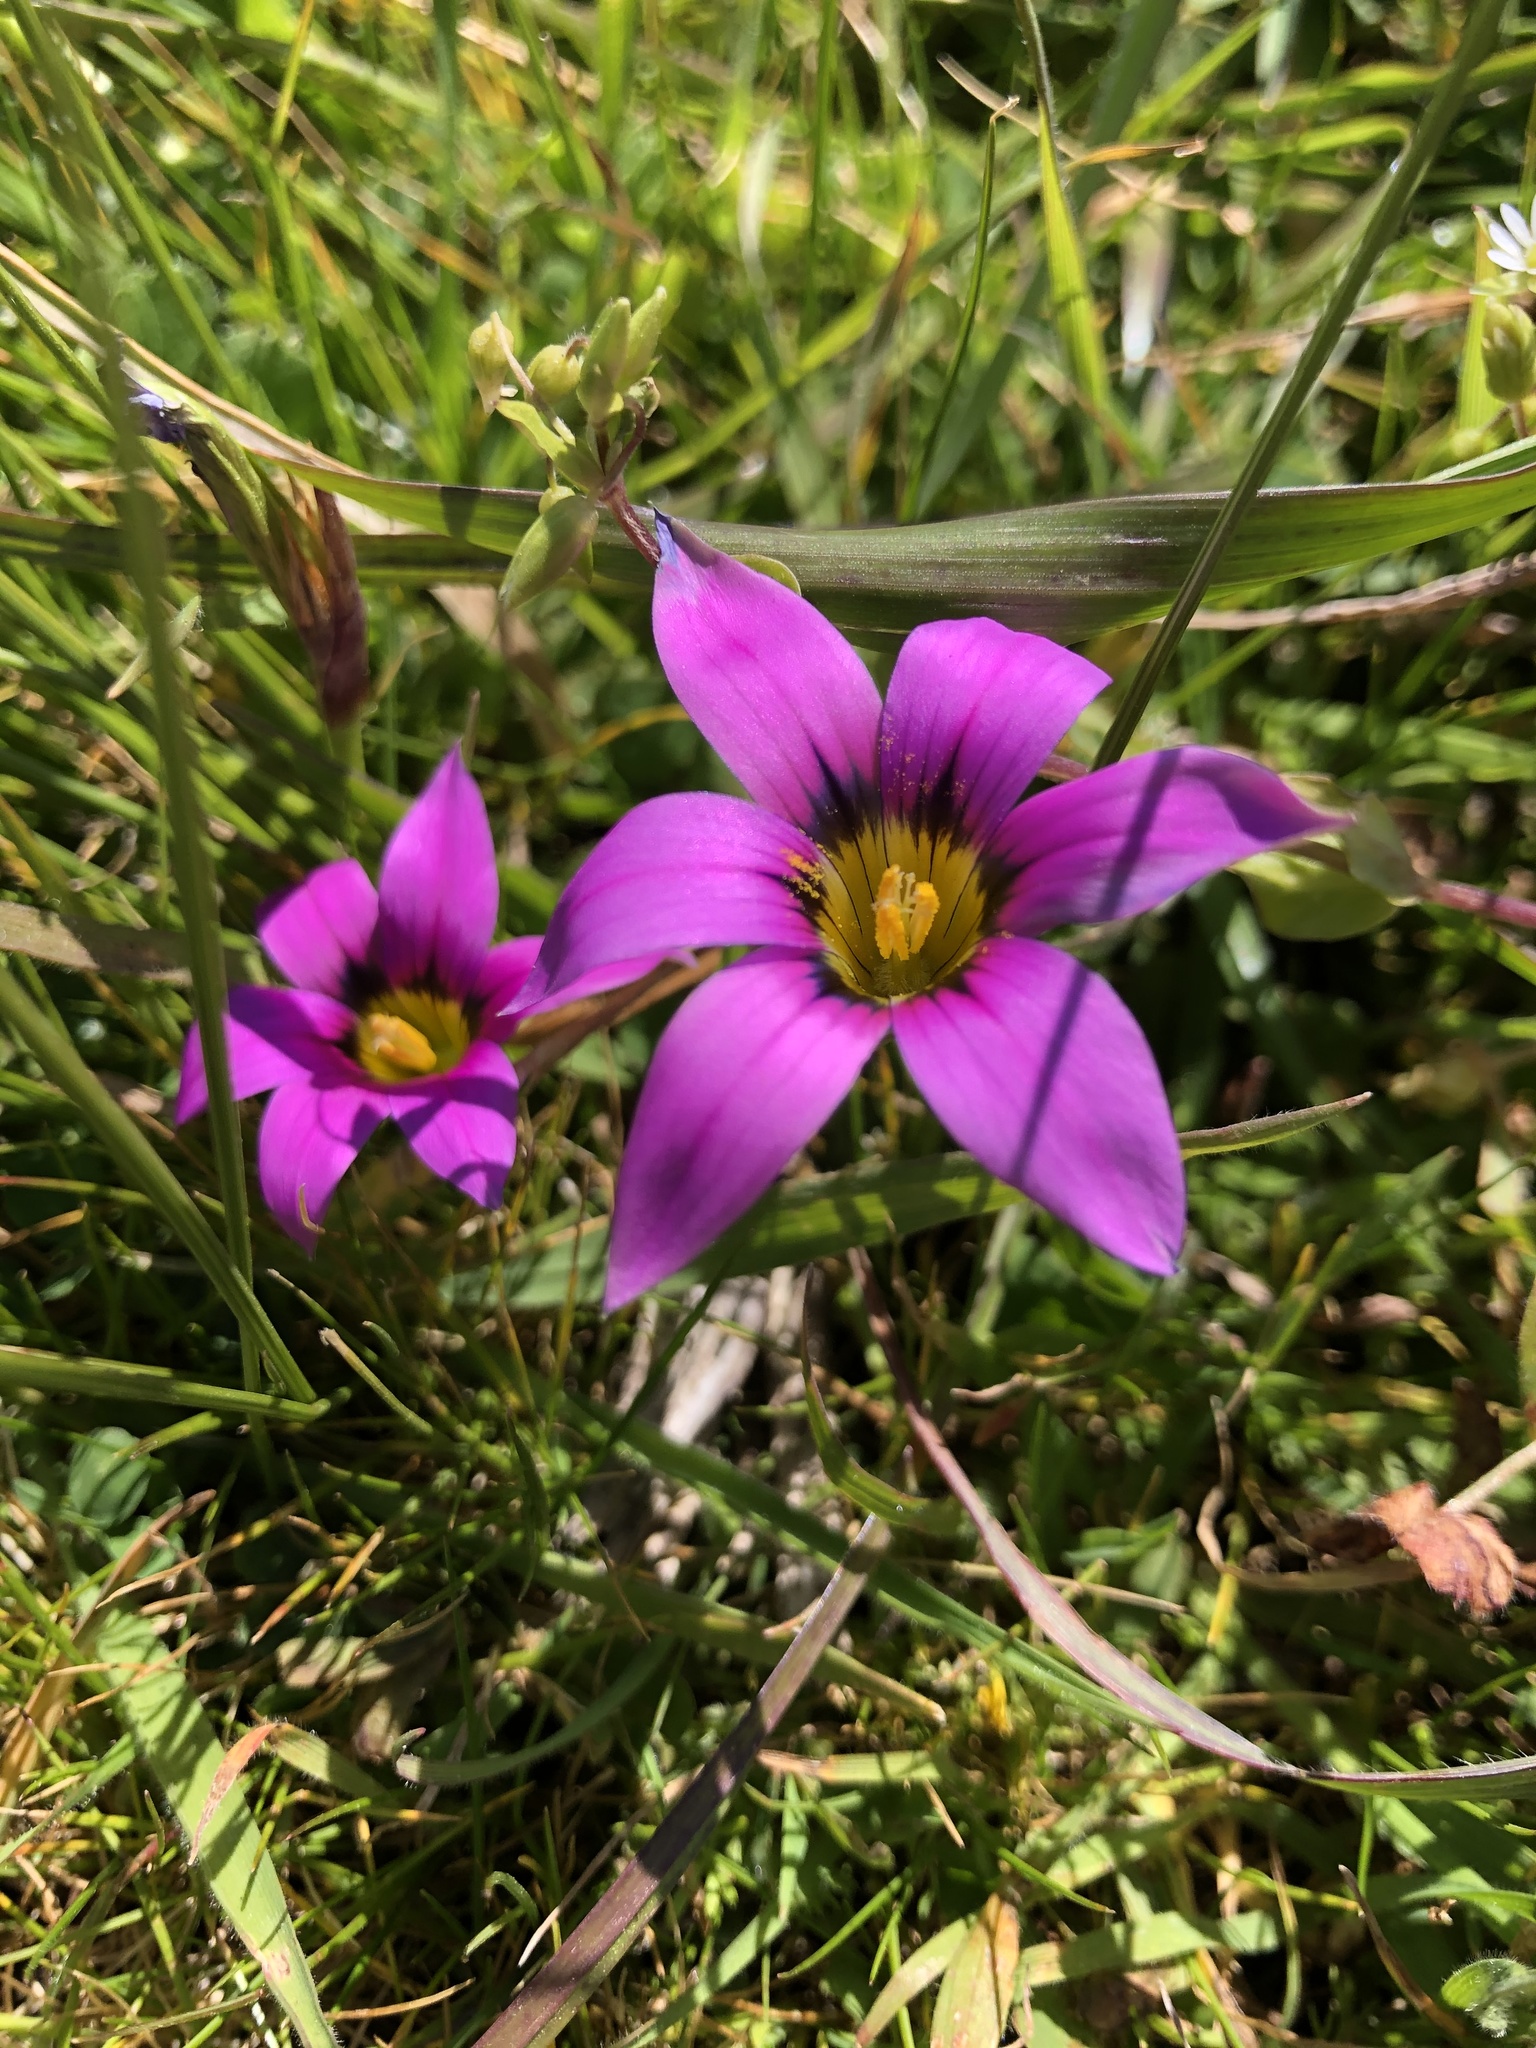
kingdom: Plantae
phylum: Tracheophyta
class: Liliopsida
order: Asparagales
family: Iridaceae
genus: Romulea
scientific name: Romulea rosea
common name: Oniongrass
